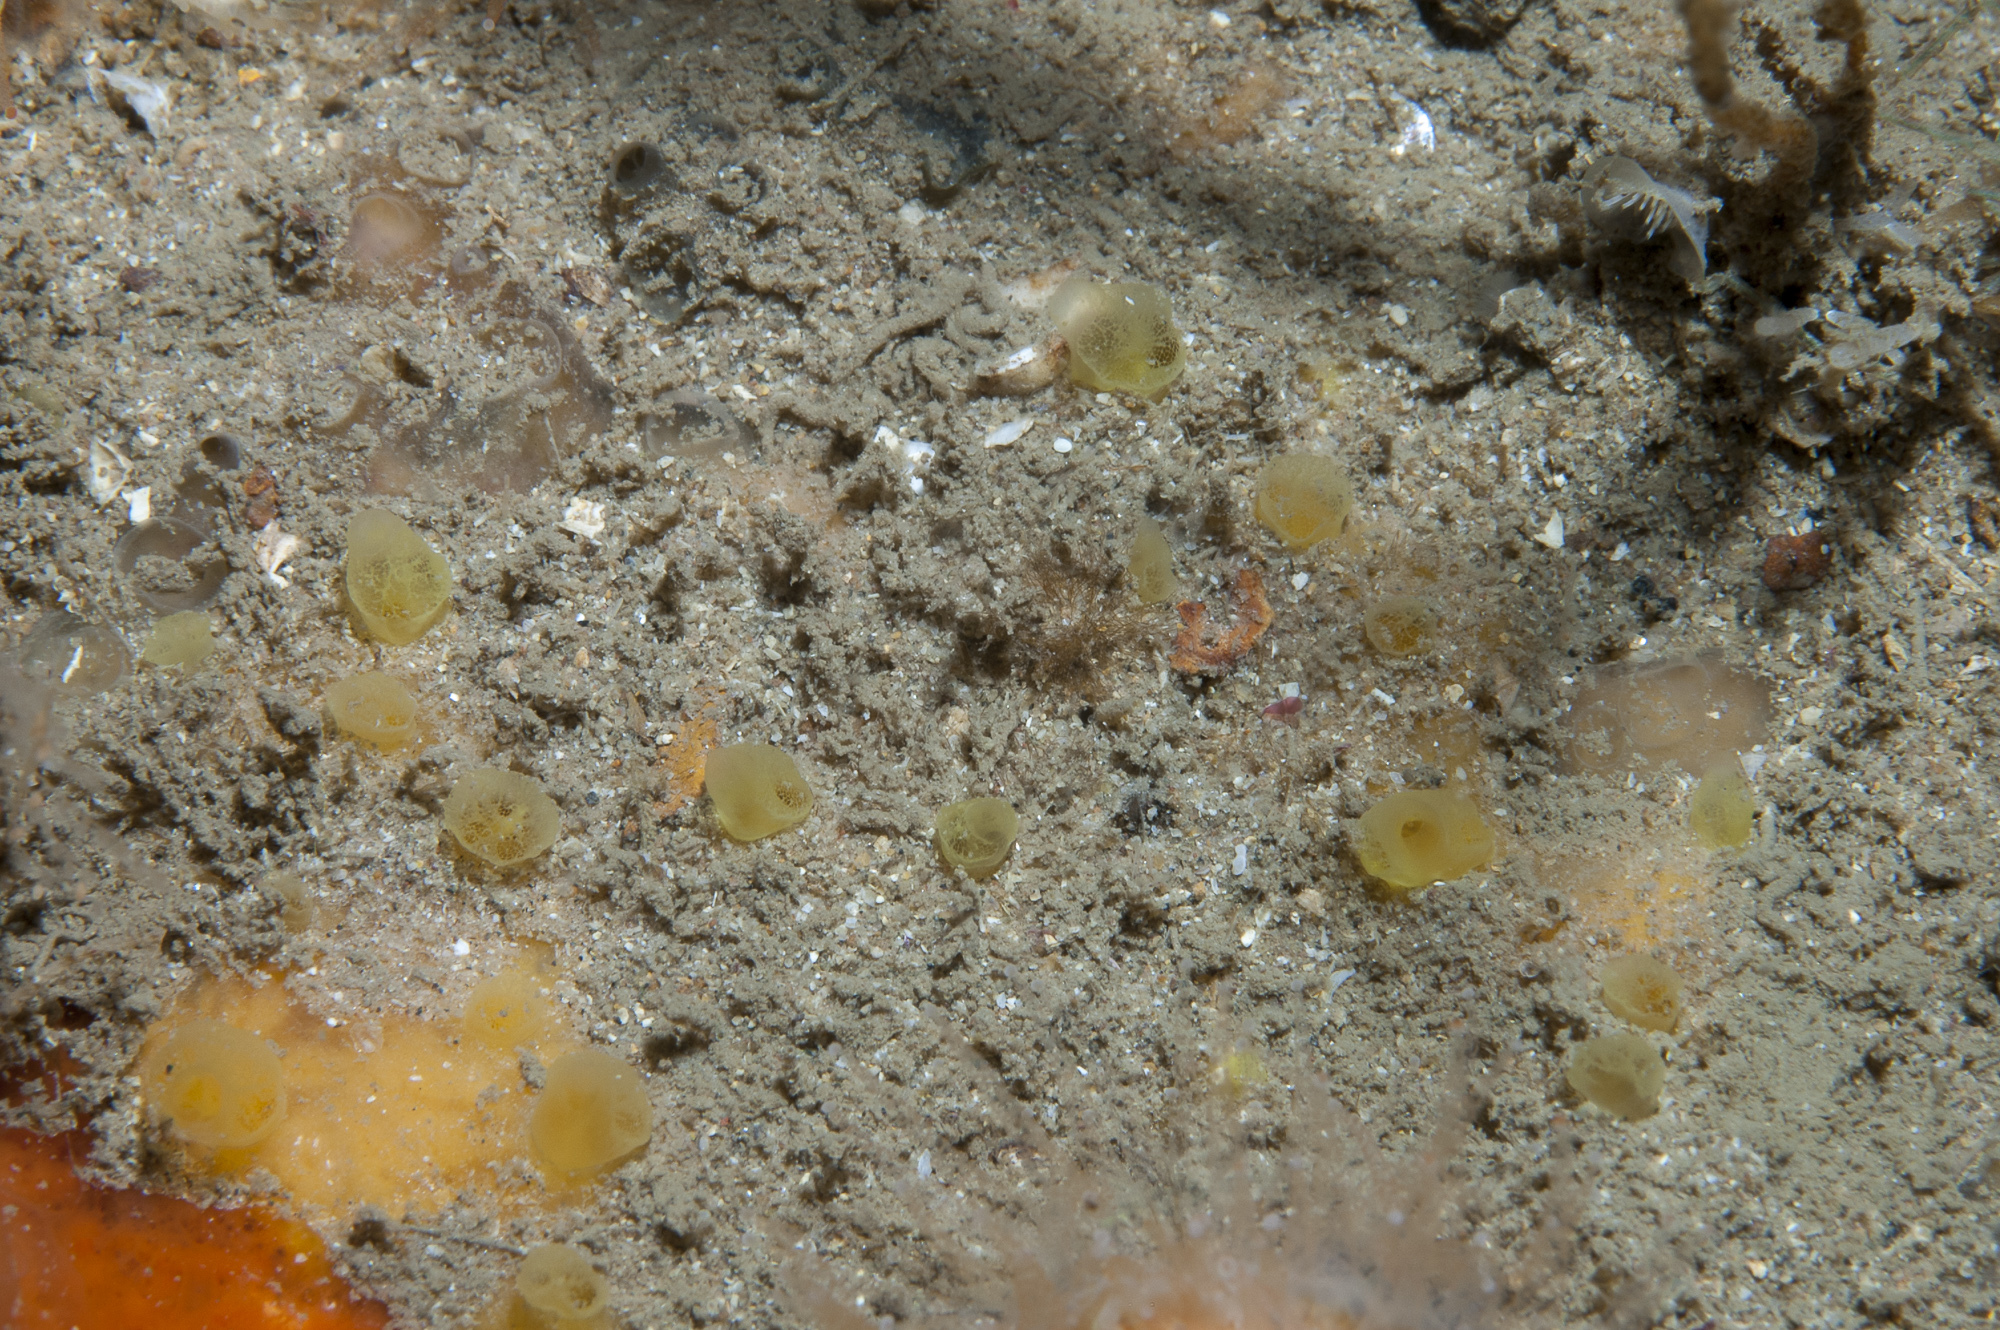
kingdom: Animalia
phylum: Porifera
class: Demospongiae
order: Poecilosclerida
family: Hymedesmiidae
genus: Hymedesmia
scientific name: Hymedesmia rathlinia
